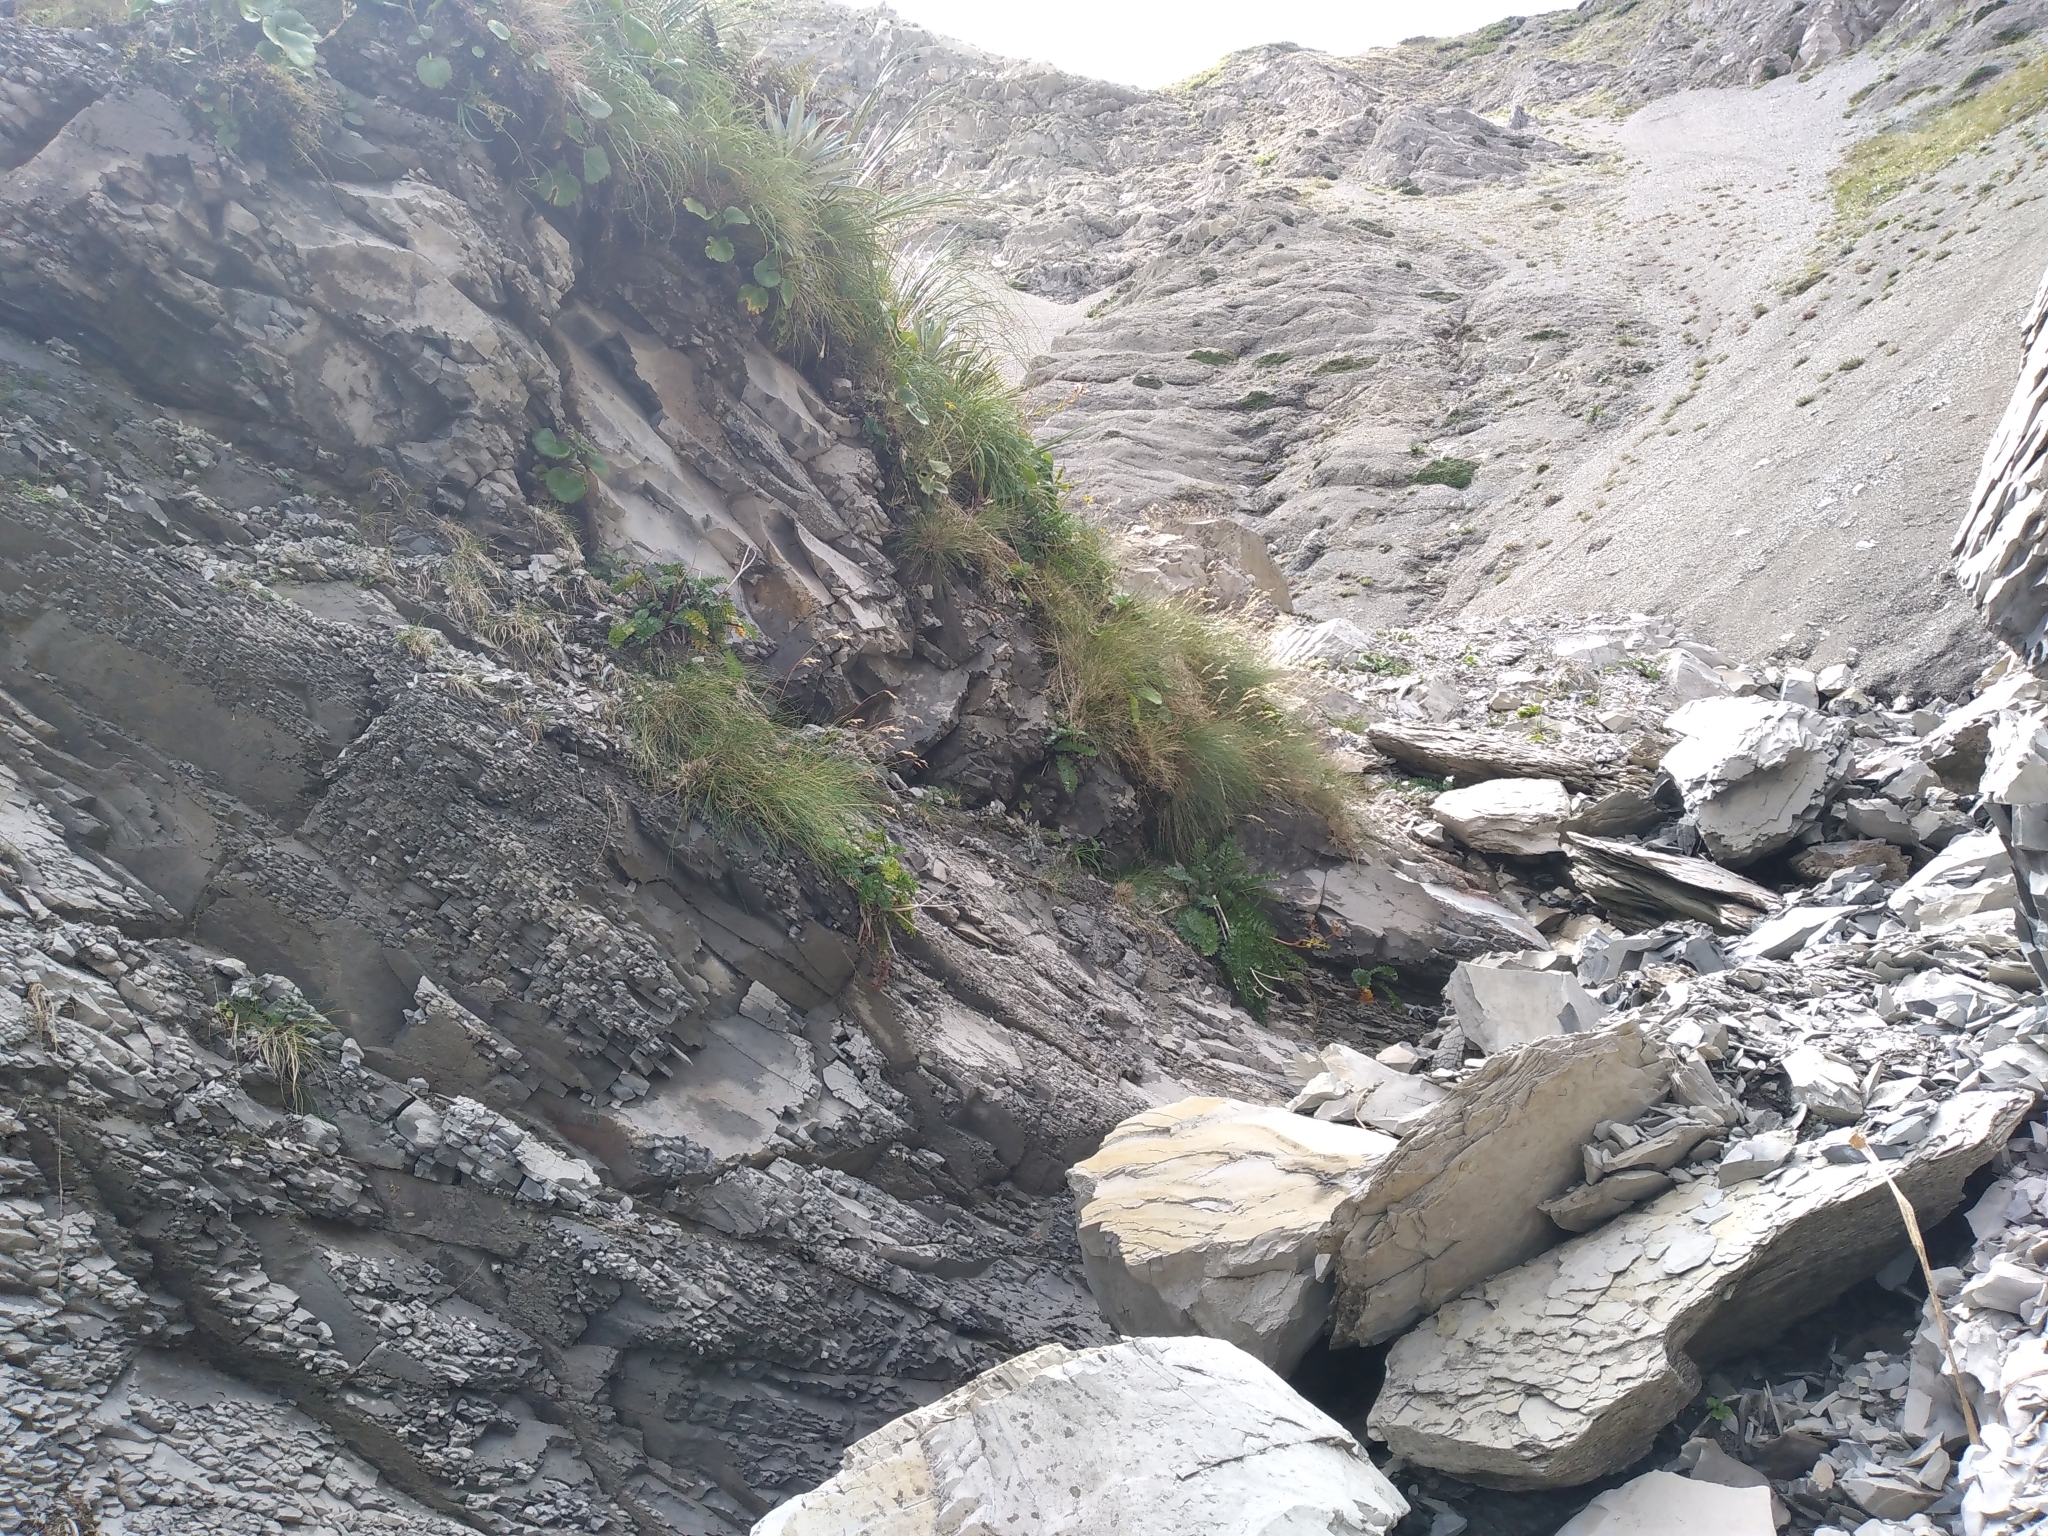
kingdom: Plantae
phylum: Tracheophyta
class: Magnoliopsida
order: Apiales
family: Apiaceae
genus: Anisotome
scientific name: Anisotome pilifera
